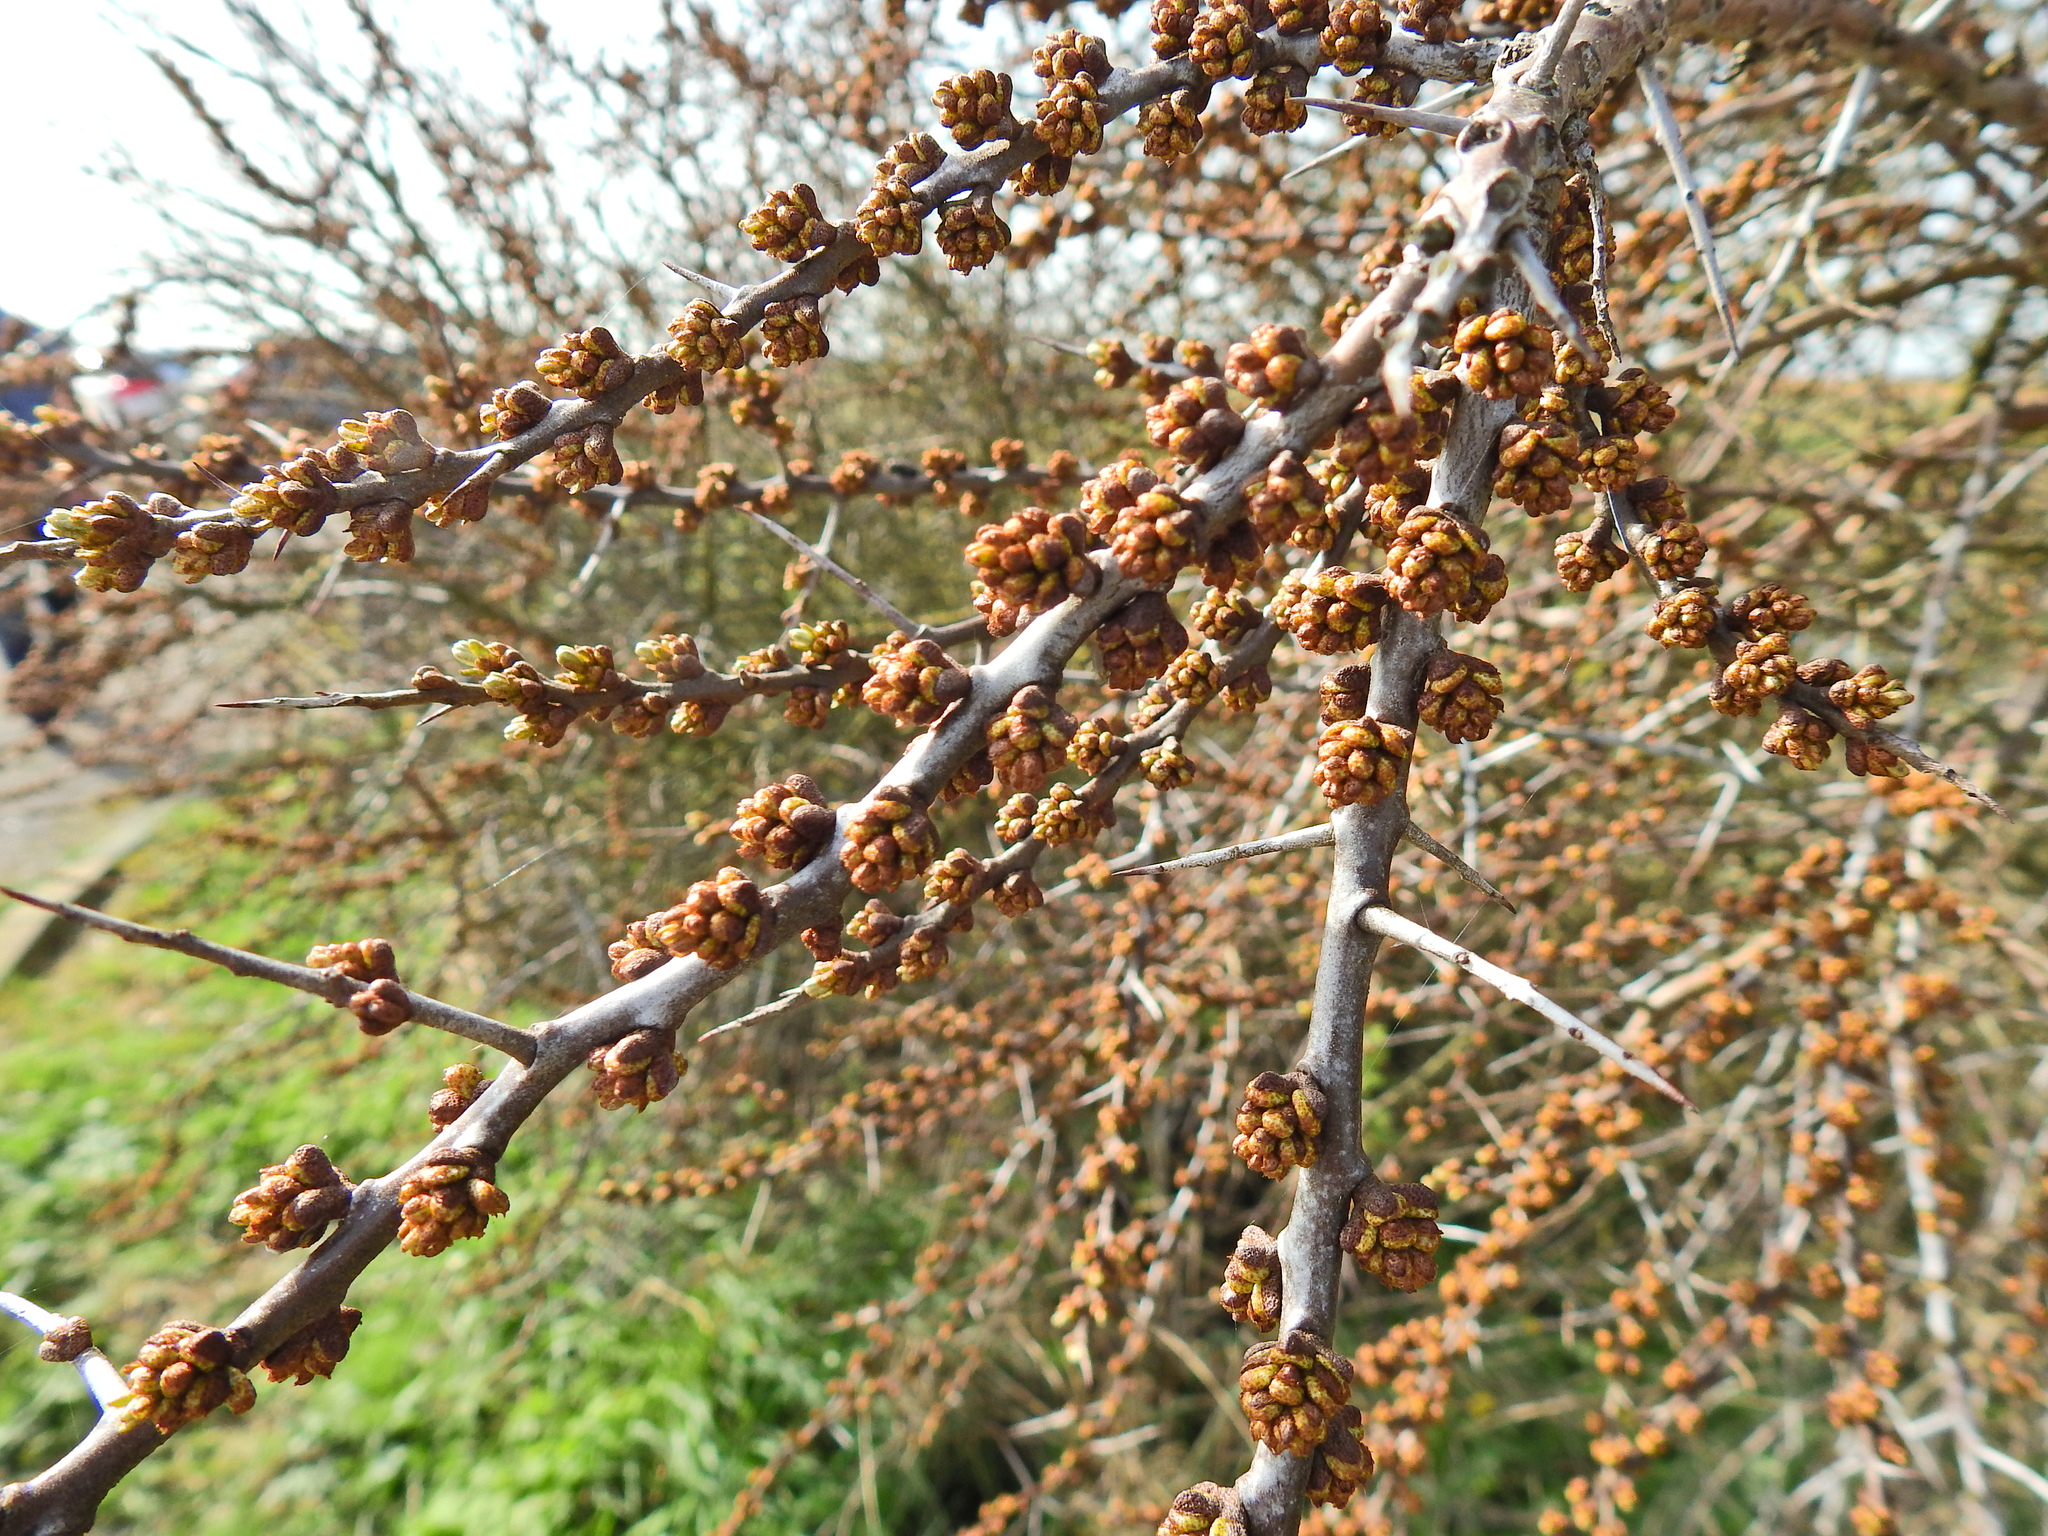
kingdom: Plantae
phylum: Tracheophyta
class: Magnoliopsida
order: Rosales
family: Elaeagnaceae
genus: Hippophae
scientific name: Hippophae rhamnoides
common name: Sea-buckthorn
